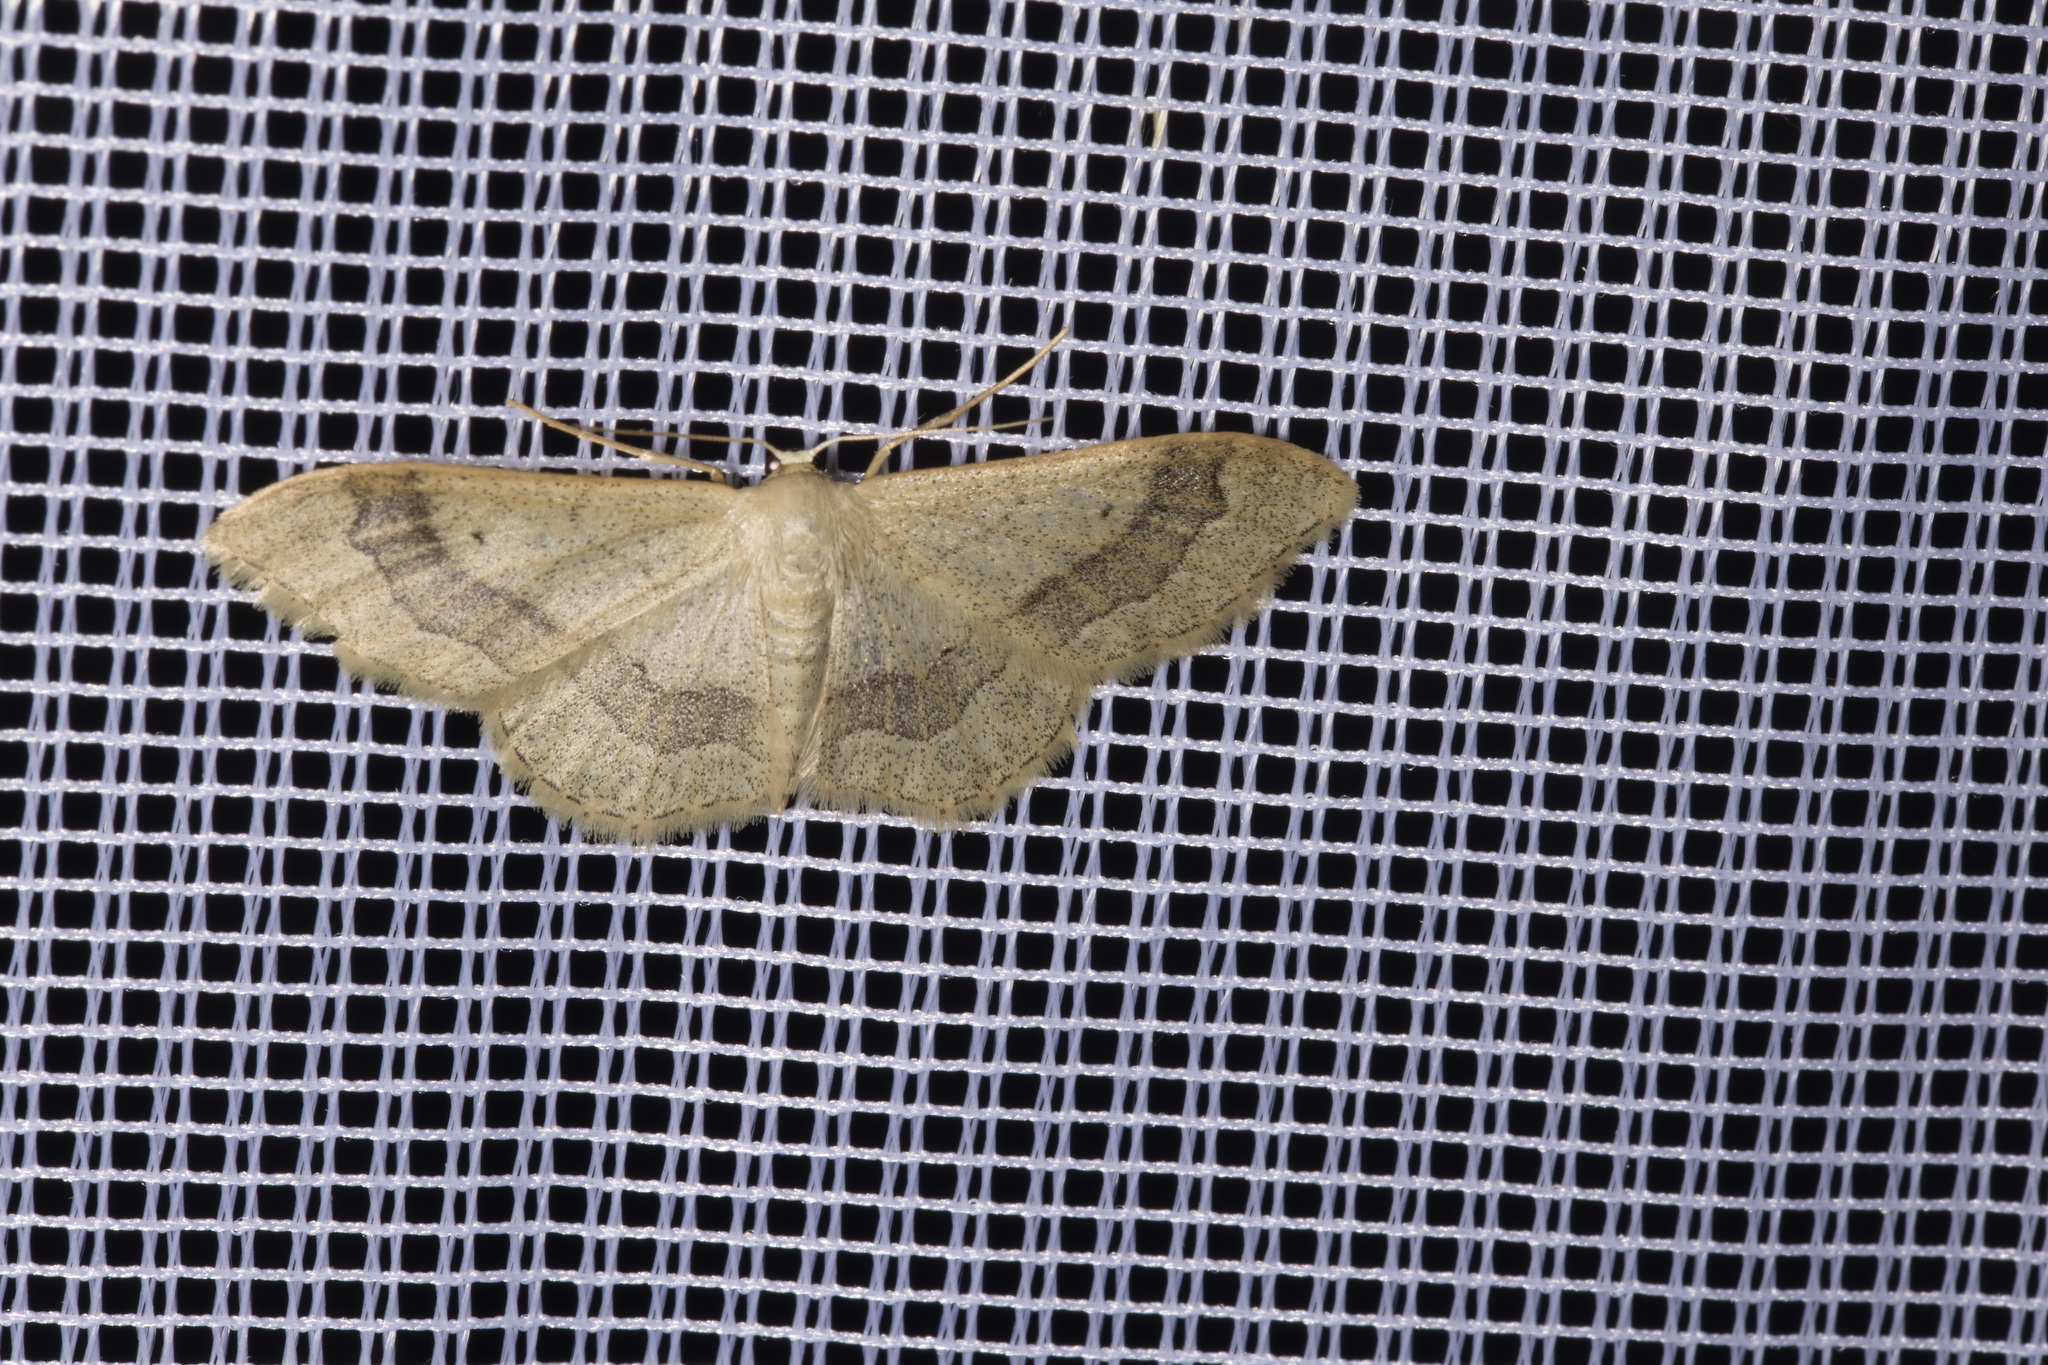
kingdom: Animalia
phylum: Arthropoda
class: Insecta
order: Lepidoptera
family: Geometridae
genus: Idaea
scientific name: Idaea aversata
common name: Riband wave
